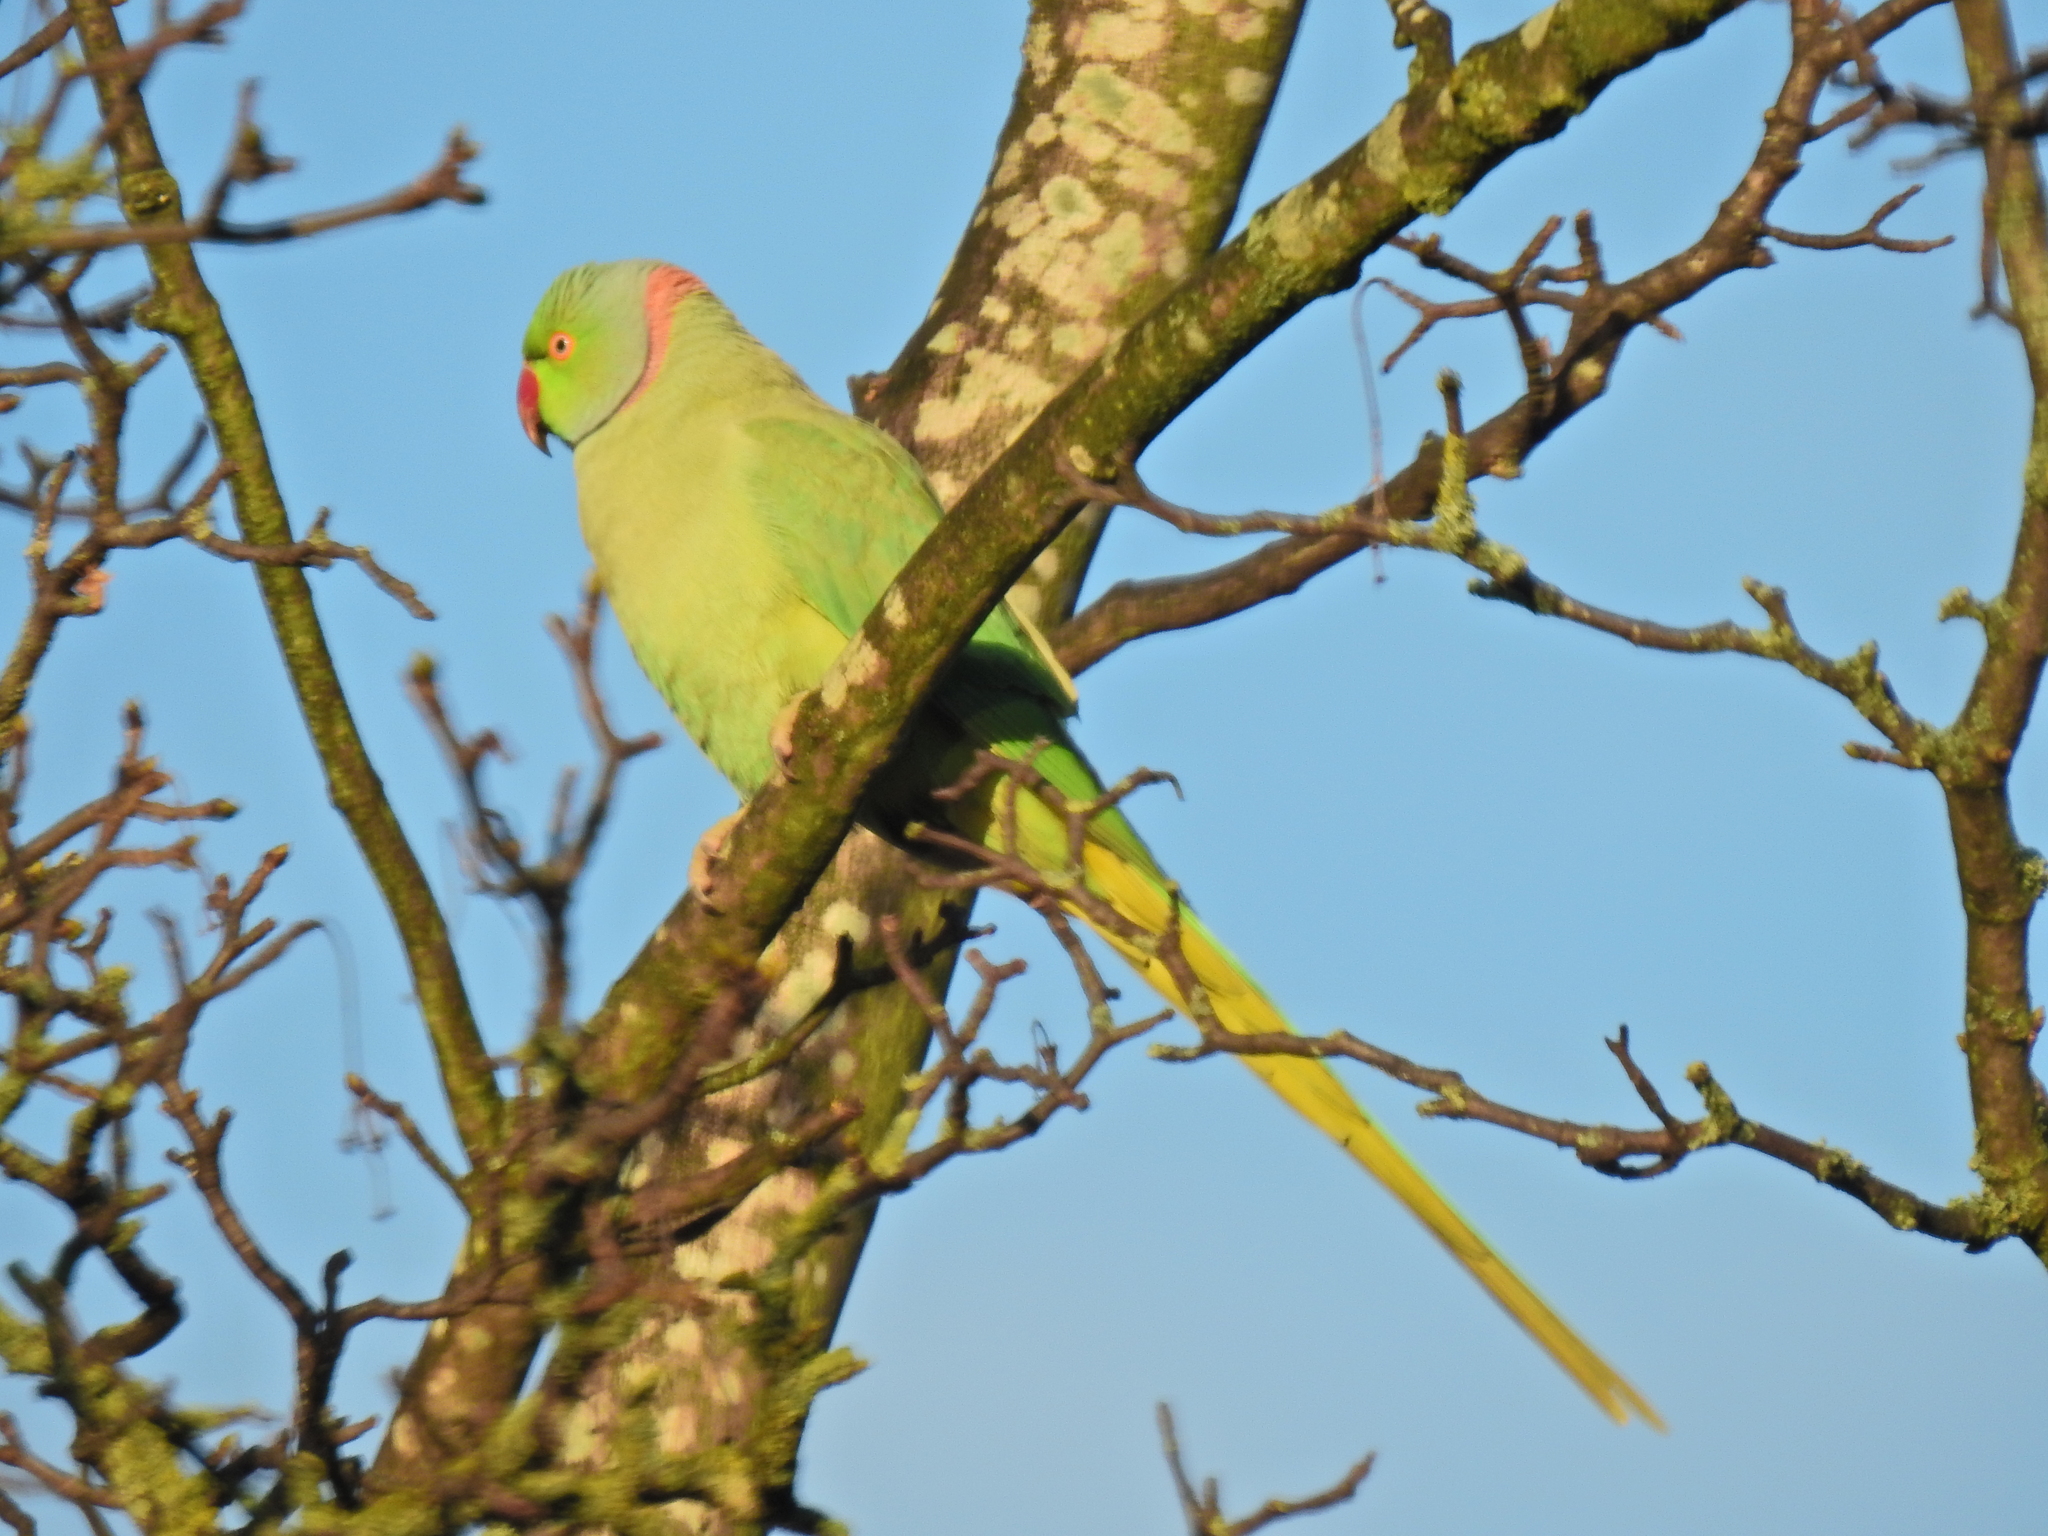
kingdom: Animalia
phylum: Chordata
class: Aves
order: Psittaciformes
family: Psittacidae
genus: Psittacula
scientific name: Psittacula krameri
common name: Rose-ringed parakeet
